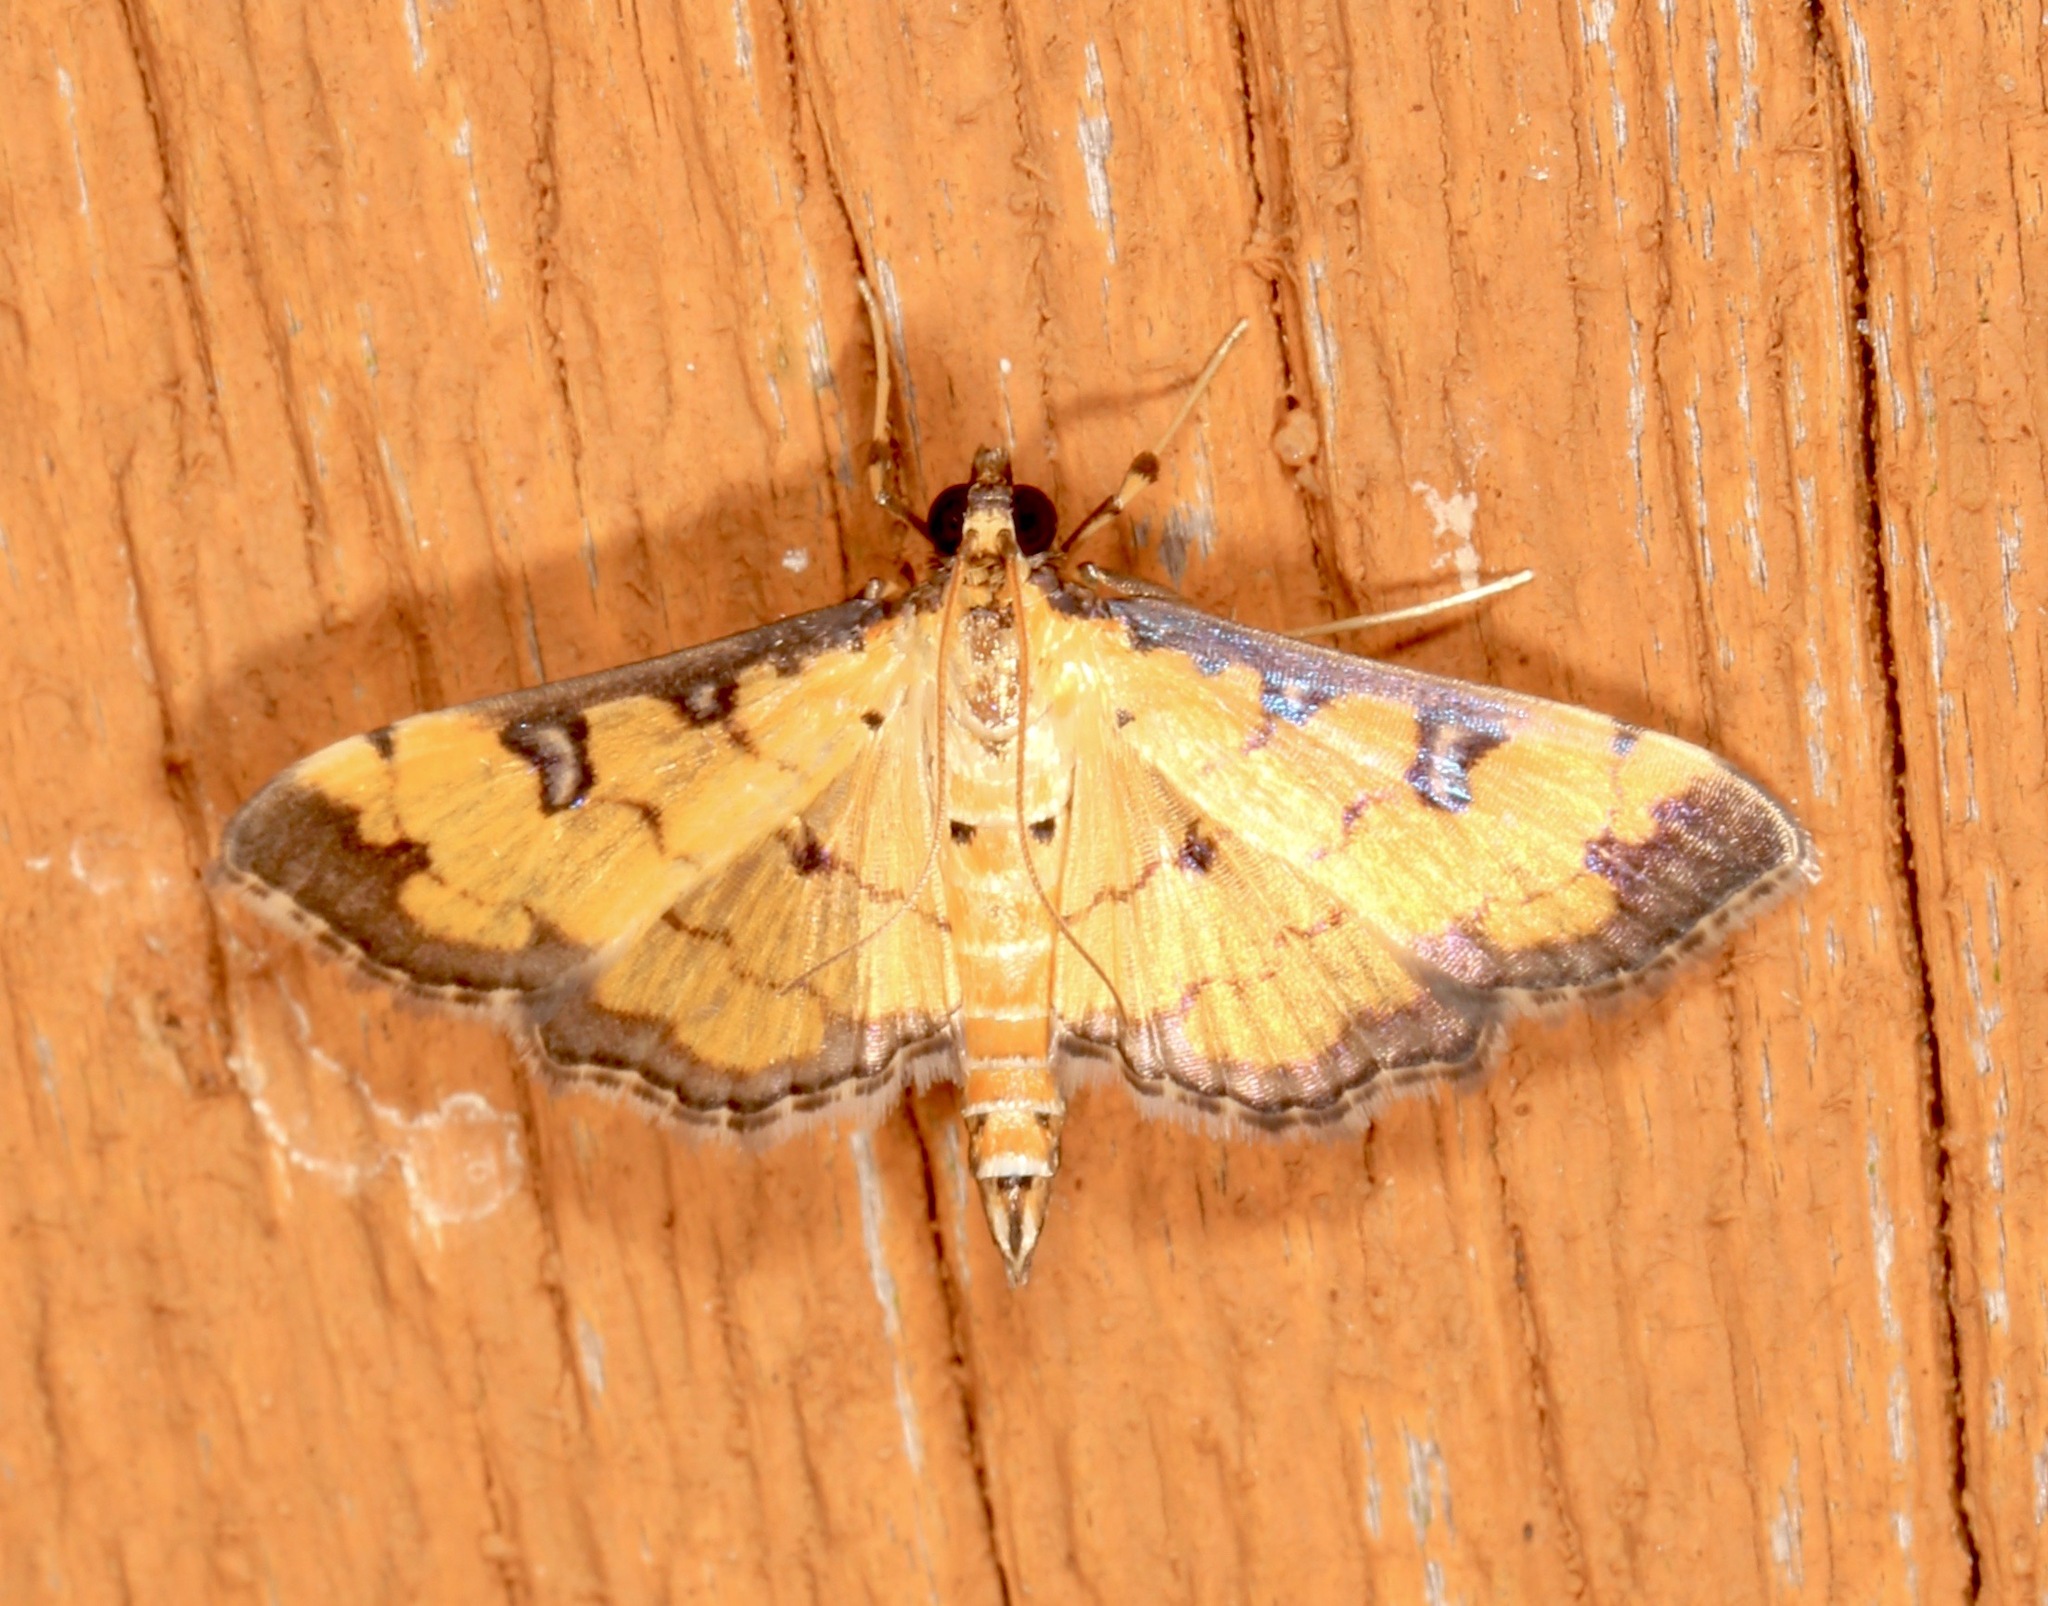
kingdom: Animalia
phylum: Arthropoda
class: Insecta
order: Lepidoptera
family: Crambidae
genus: Ategumia
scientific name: Ategumia ebulealis
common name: Moth
